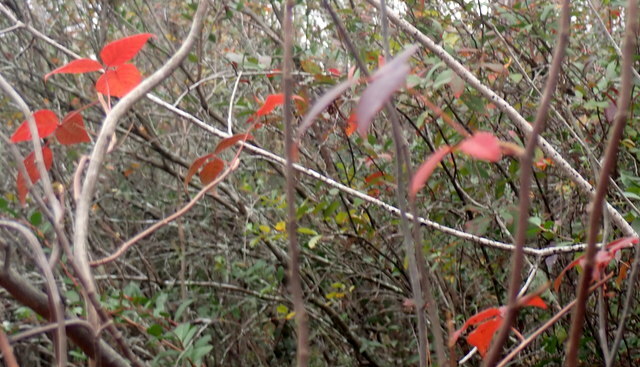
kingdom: Plantae
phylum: Tracheophyta
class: Magnoliopsida
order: Sapindales
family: Anacardiaceae
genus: Toxicodendron
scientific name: Toxicodendron radicans
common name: Poison ivy
